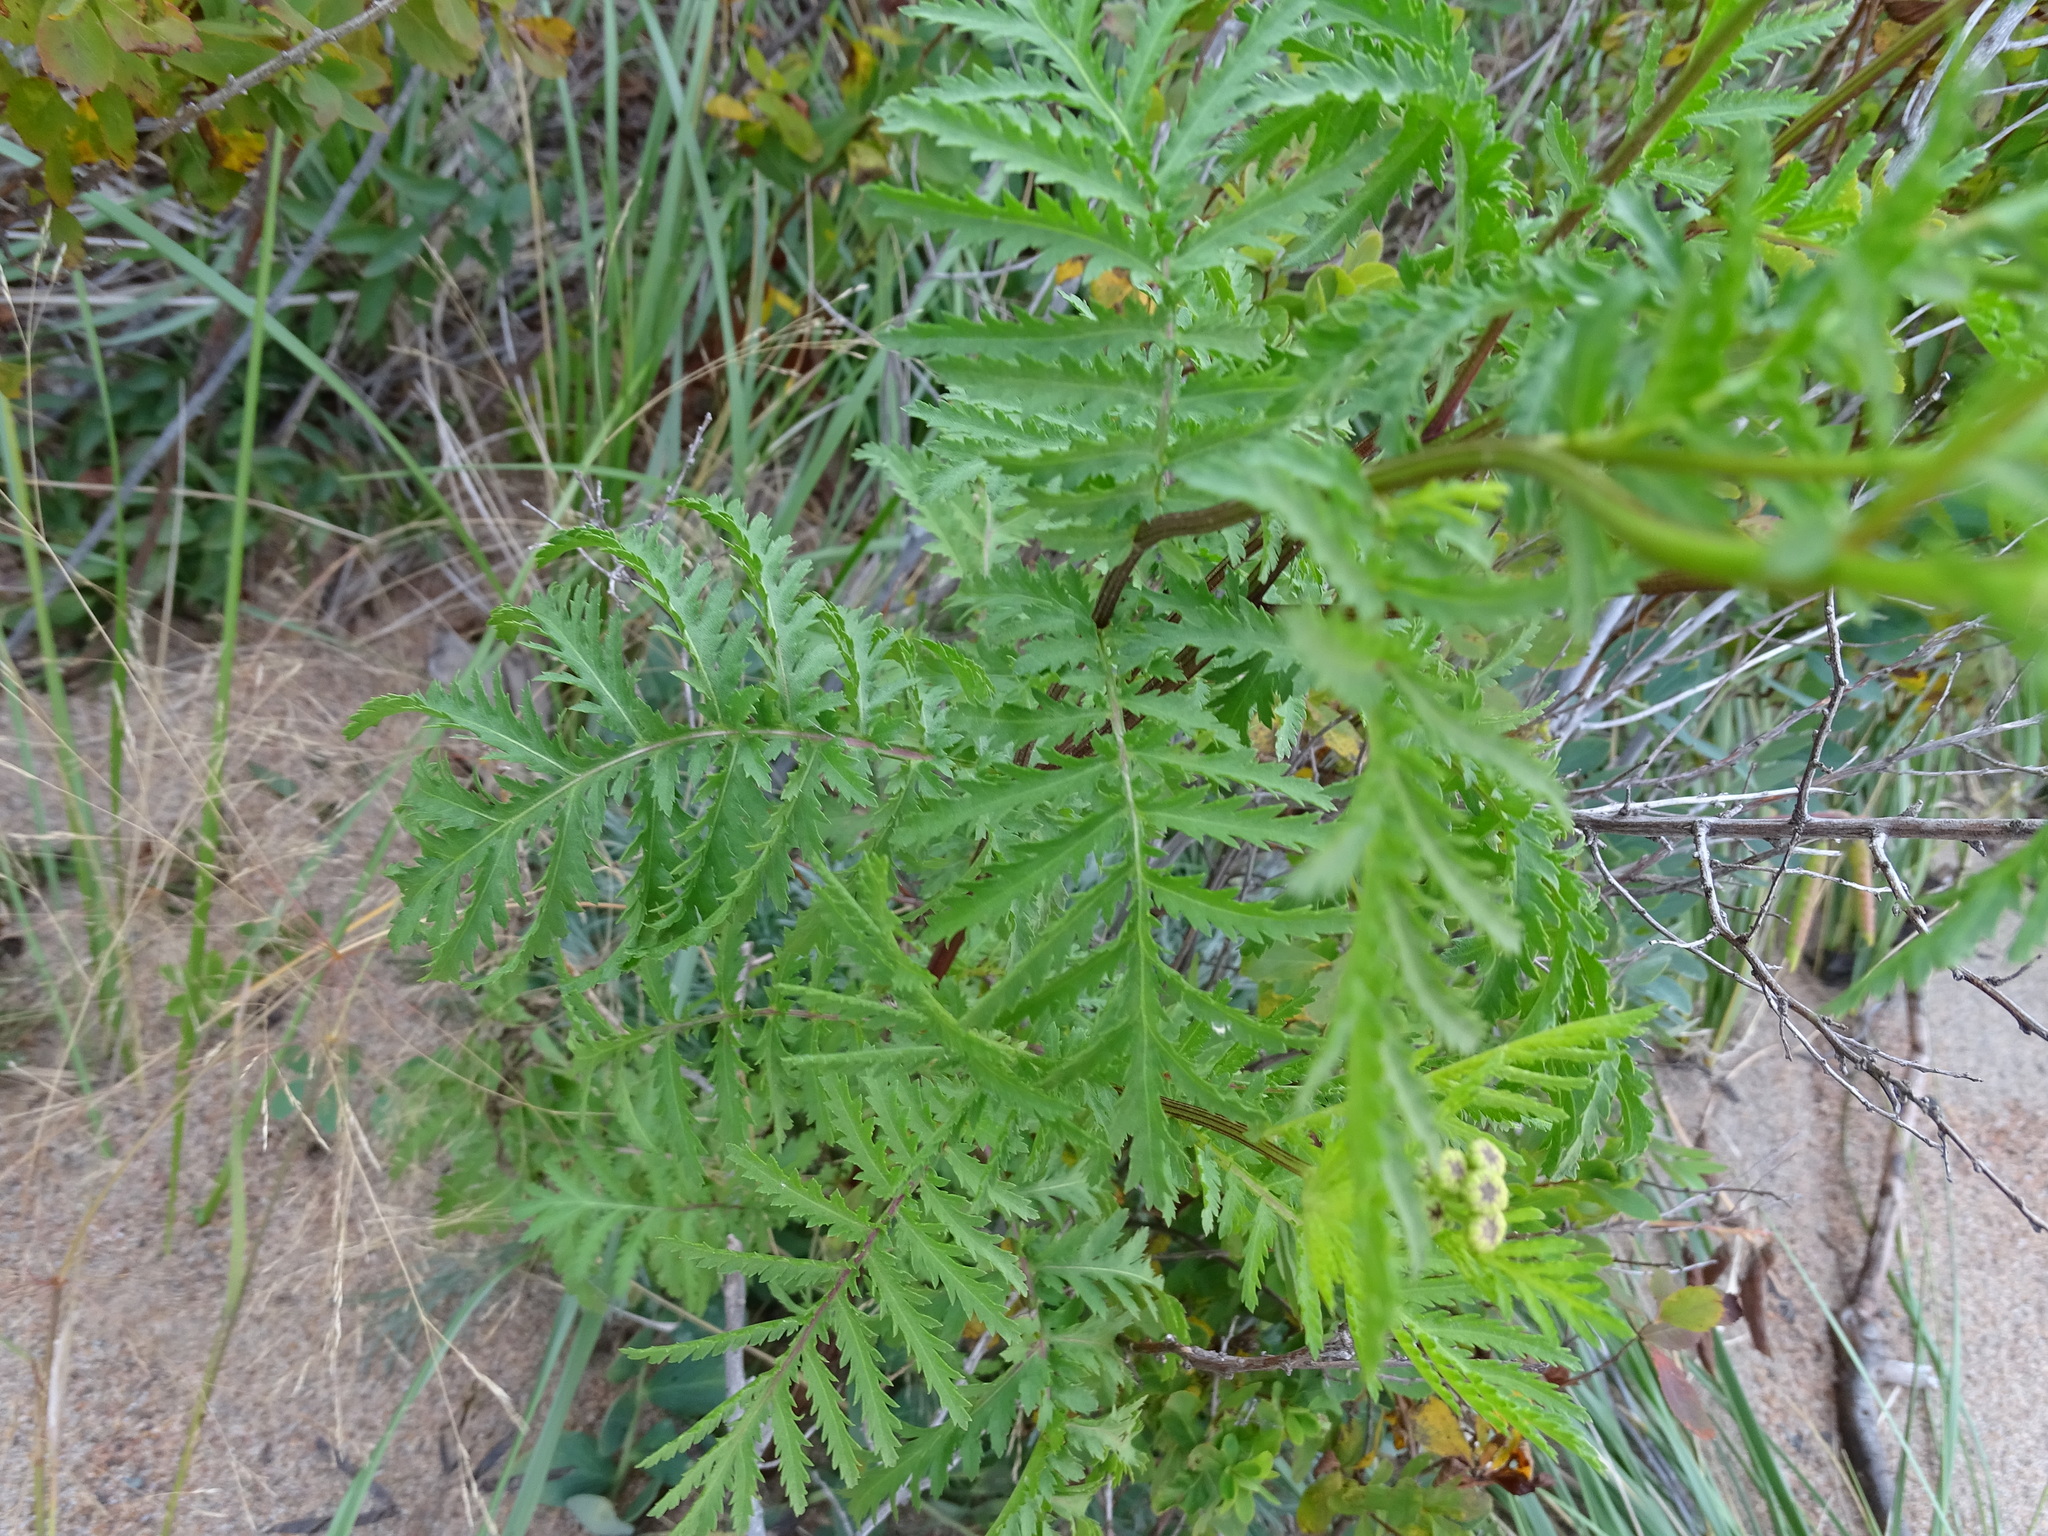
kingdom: Plantae
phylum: Tracheophyta
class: Magnoliopsida
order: Asterales
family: Asteraceae
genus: Tanacetum
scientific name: Tanacetum vulgare
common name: Common tansy
